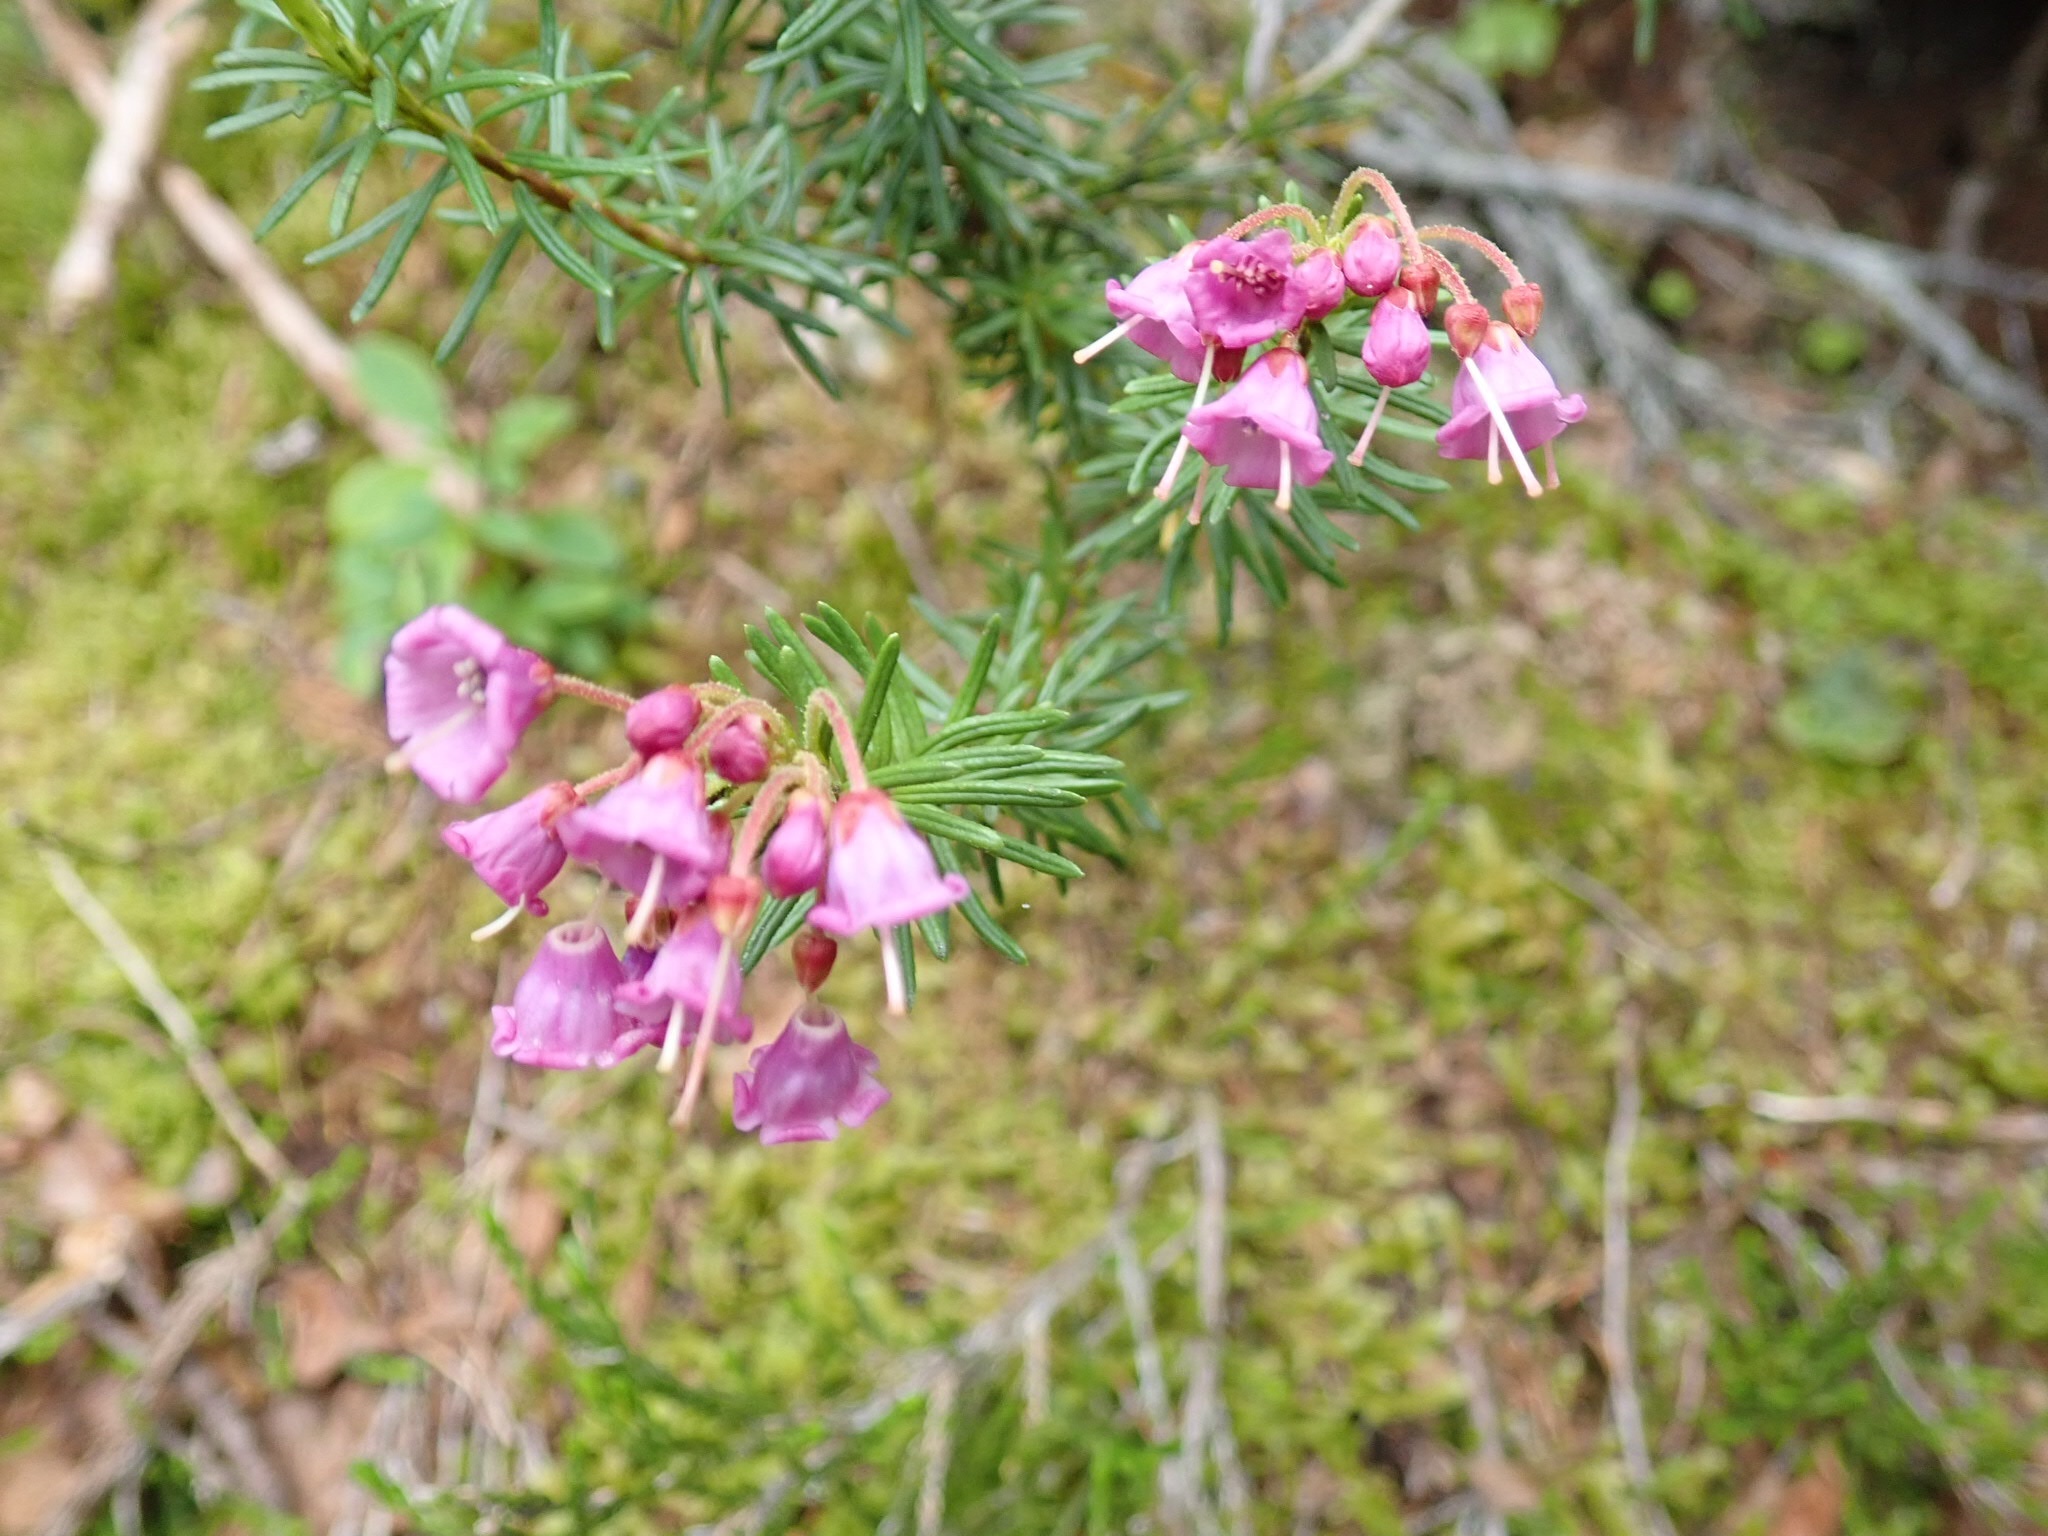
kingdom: Plantae
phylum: Tracheophyta
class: Magnoliopsida
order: Ericales
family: Ericaceae
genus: Phyllodoce
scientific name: Phyllodoce empetriformis
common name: Pink mountain heather
